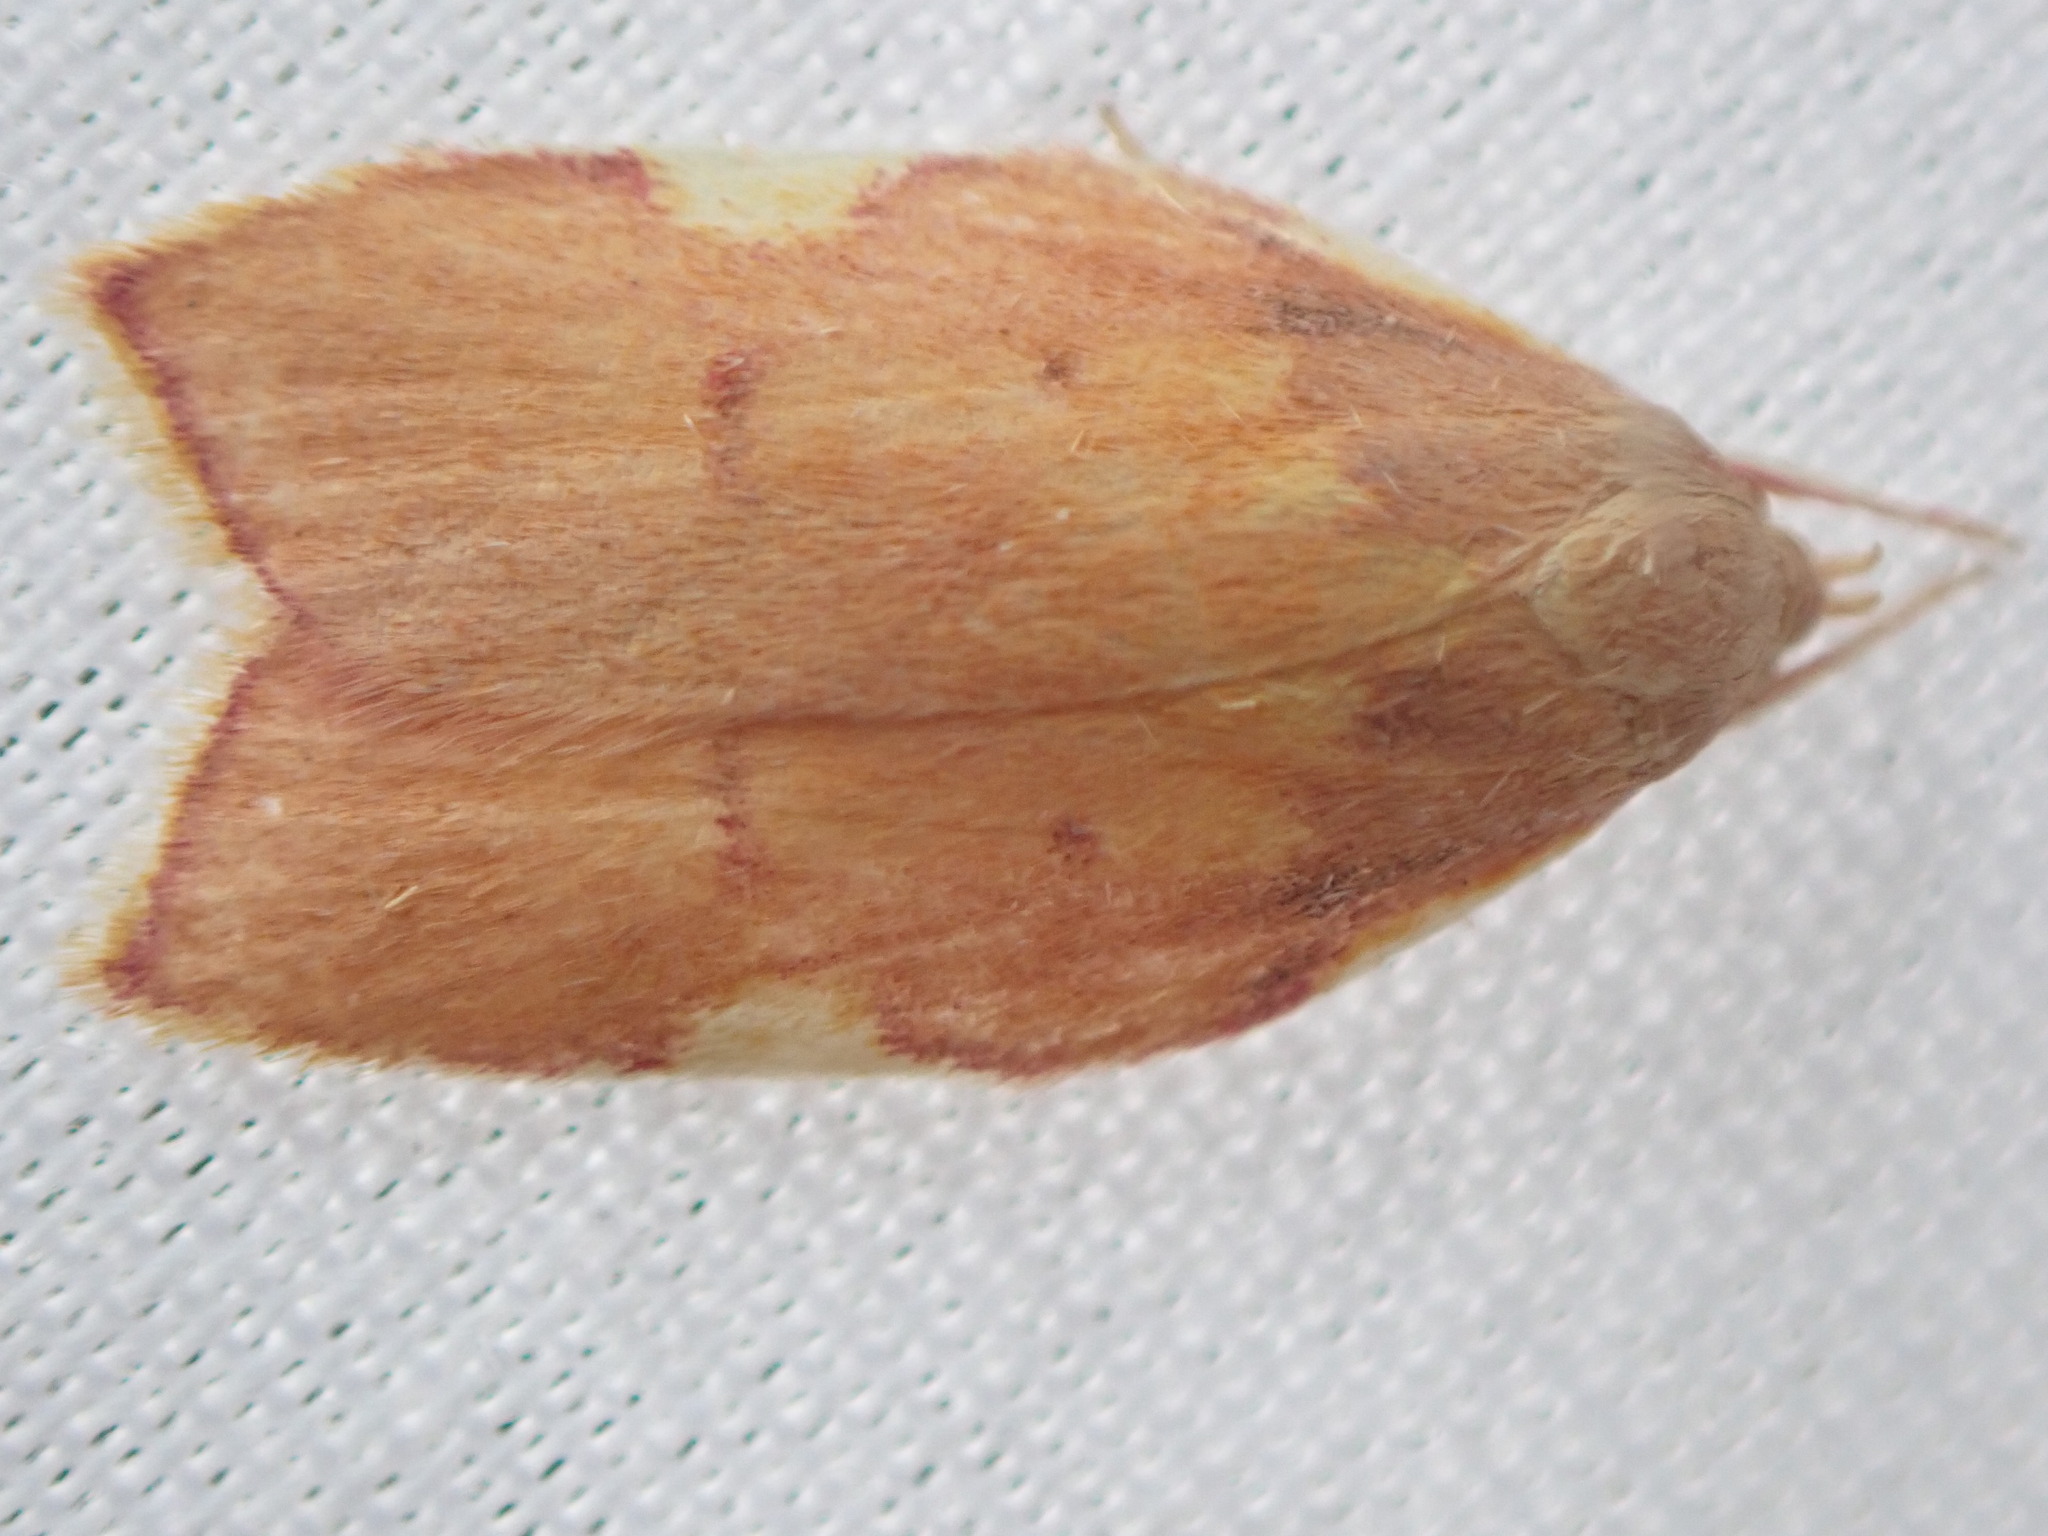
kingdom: Animalia
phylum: Arthropoda
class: Insecta
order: Lepidoptera
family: Peleopodidae
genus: Carcina
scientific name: Carcina quercana
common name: Moth
